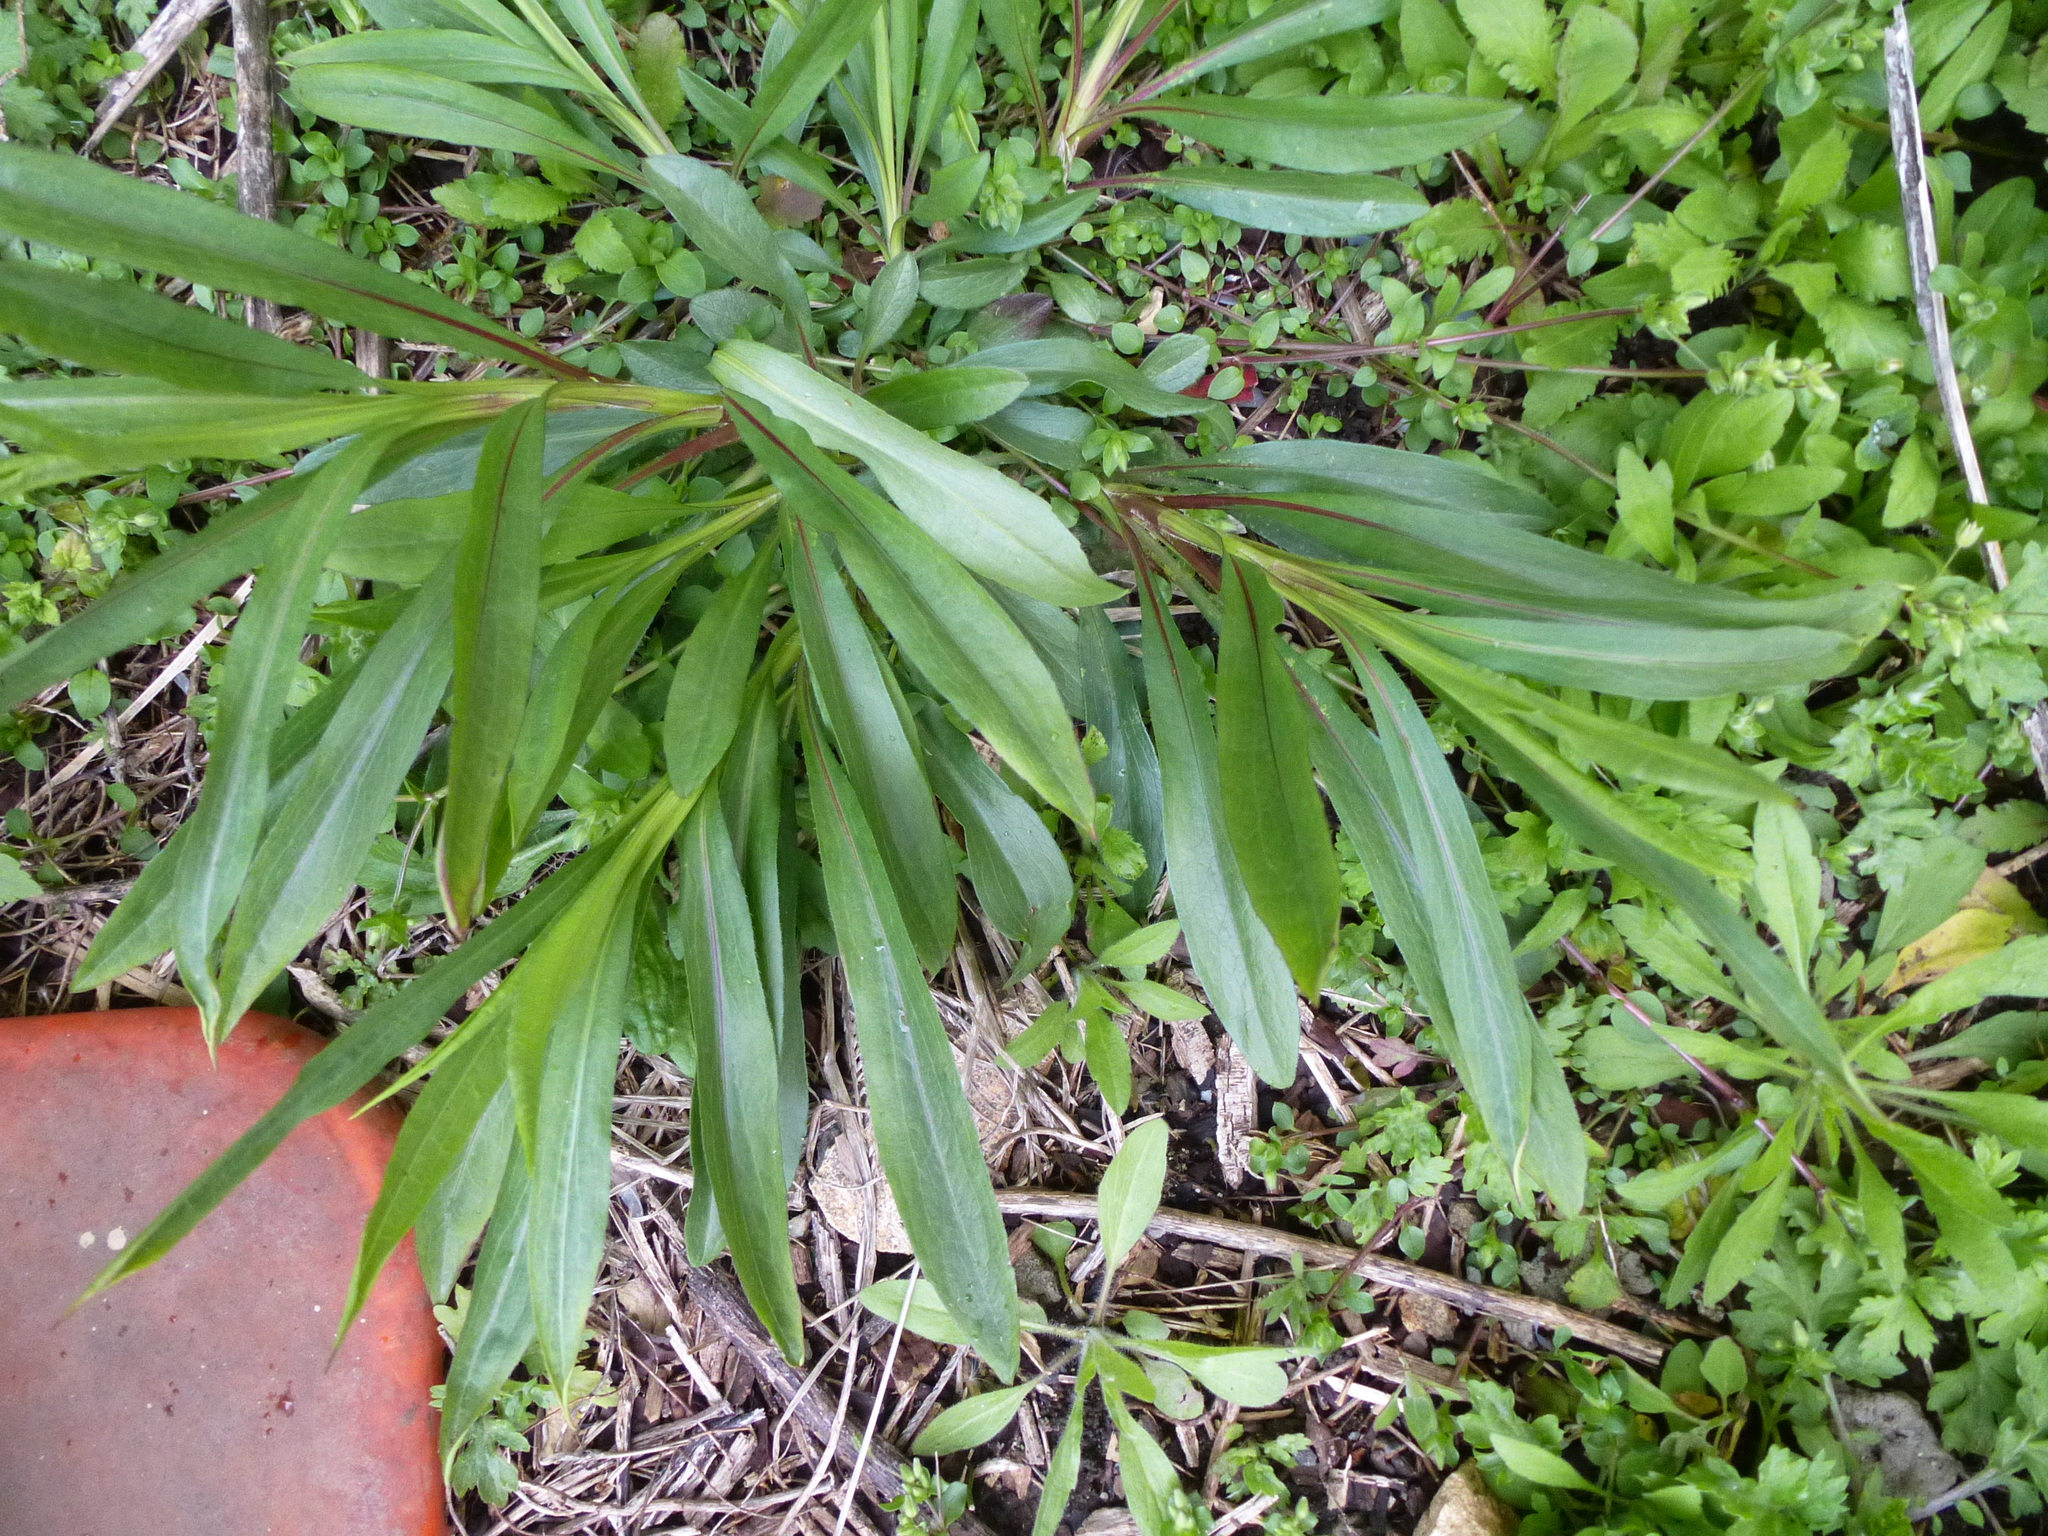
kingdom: Plantae
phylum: Tracheophyta
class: Magnoliopsida
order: Asterales
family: Asteraceae
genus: Solidago
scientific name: Solidago sempervirens
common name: Salt-marsh goldenrod
